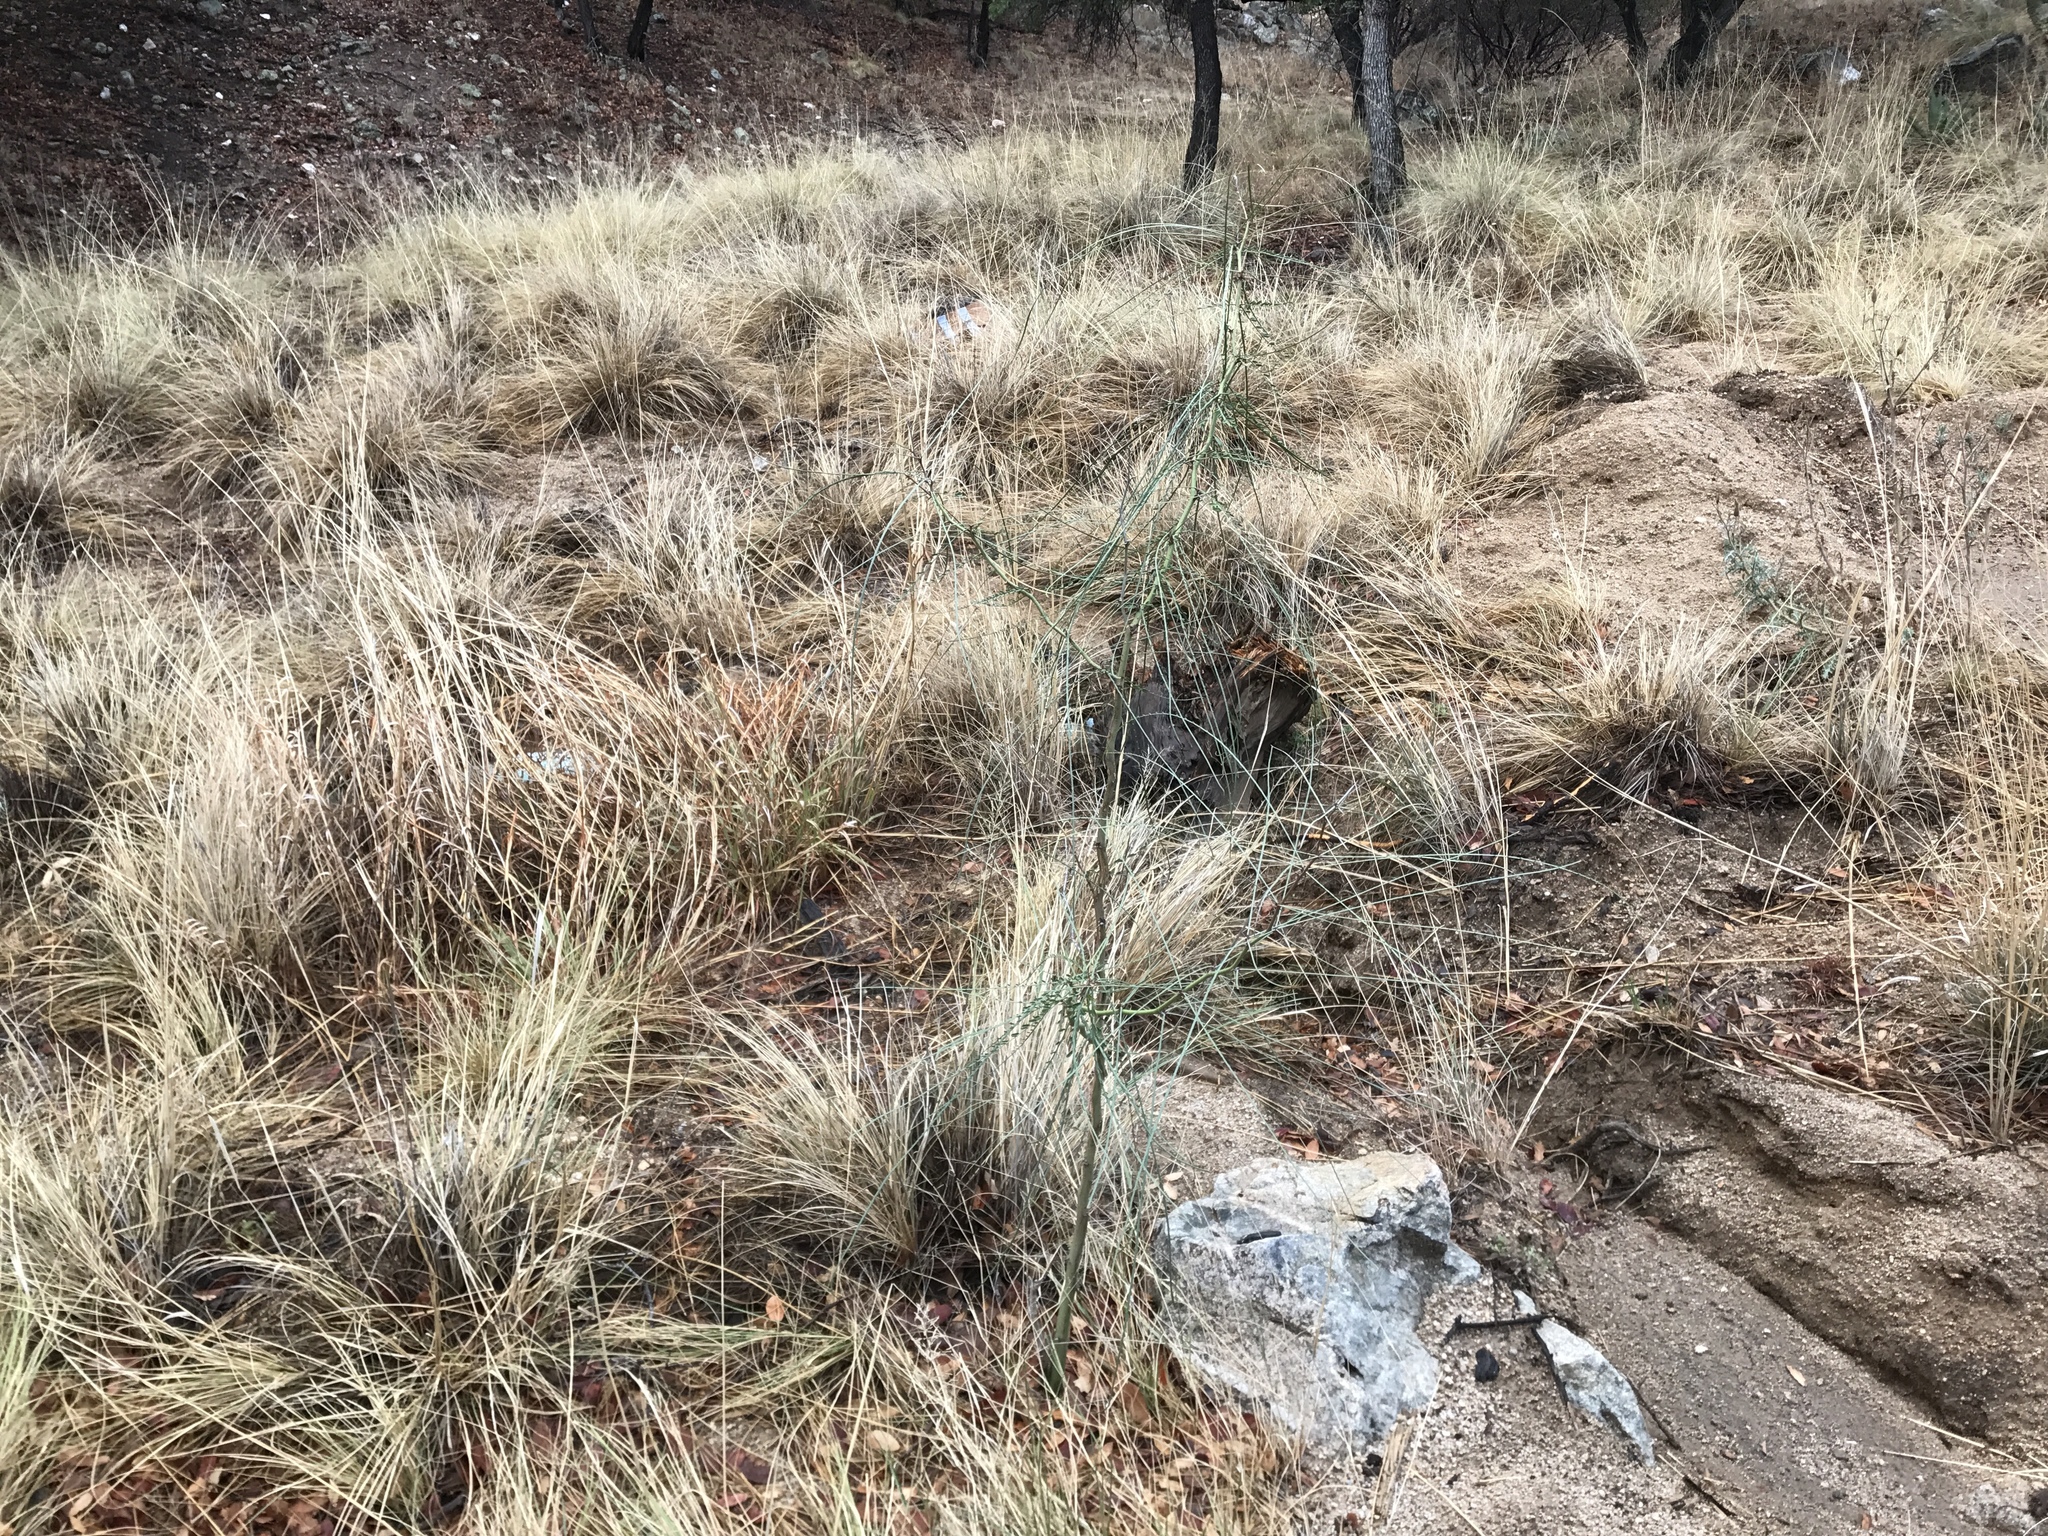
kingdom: Plantae
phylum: Tracheophyta
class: Magnoliopsida
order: Fabales
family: Fabaceae
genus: Parkinsonia
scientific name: Parkinsonia aculeata
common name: Jerusalem thorn
